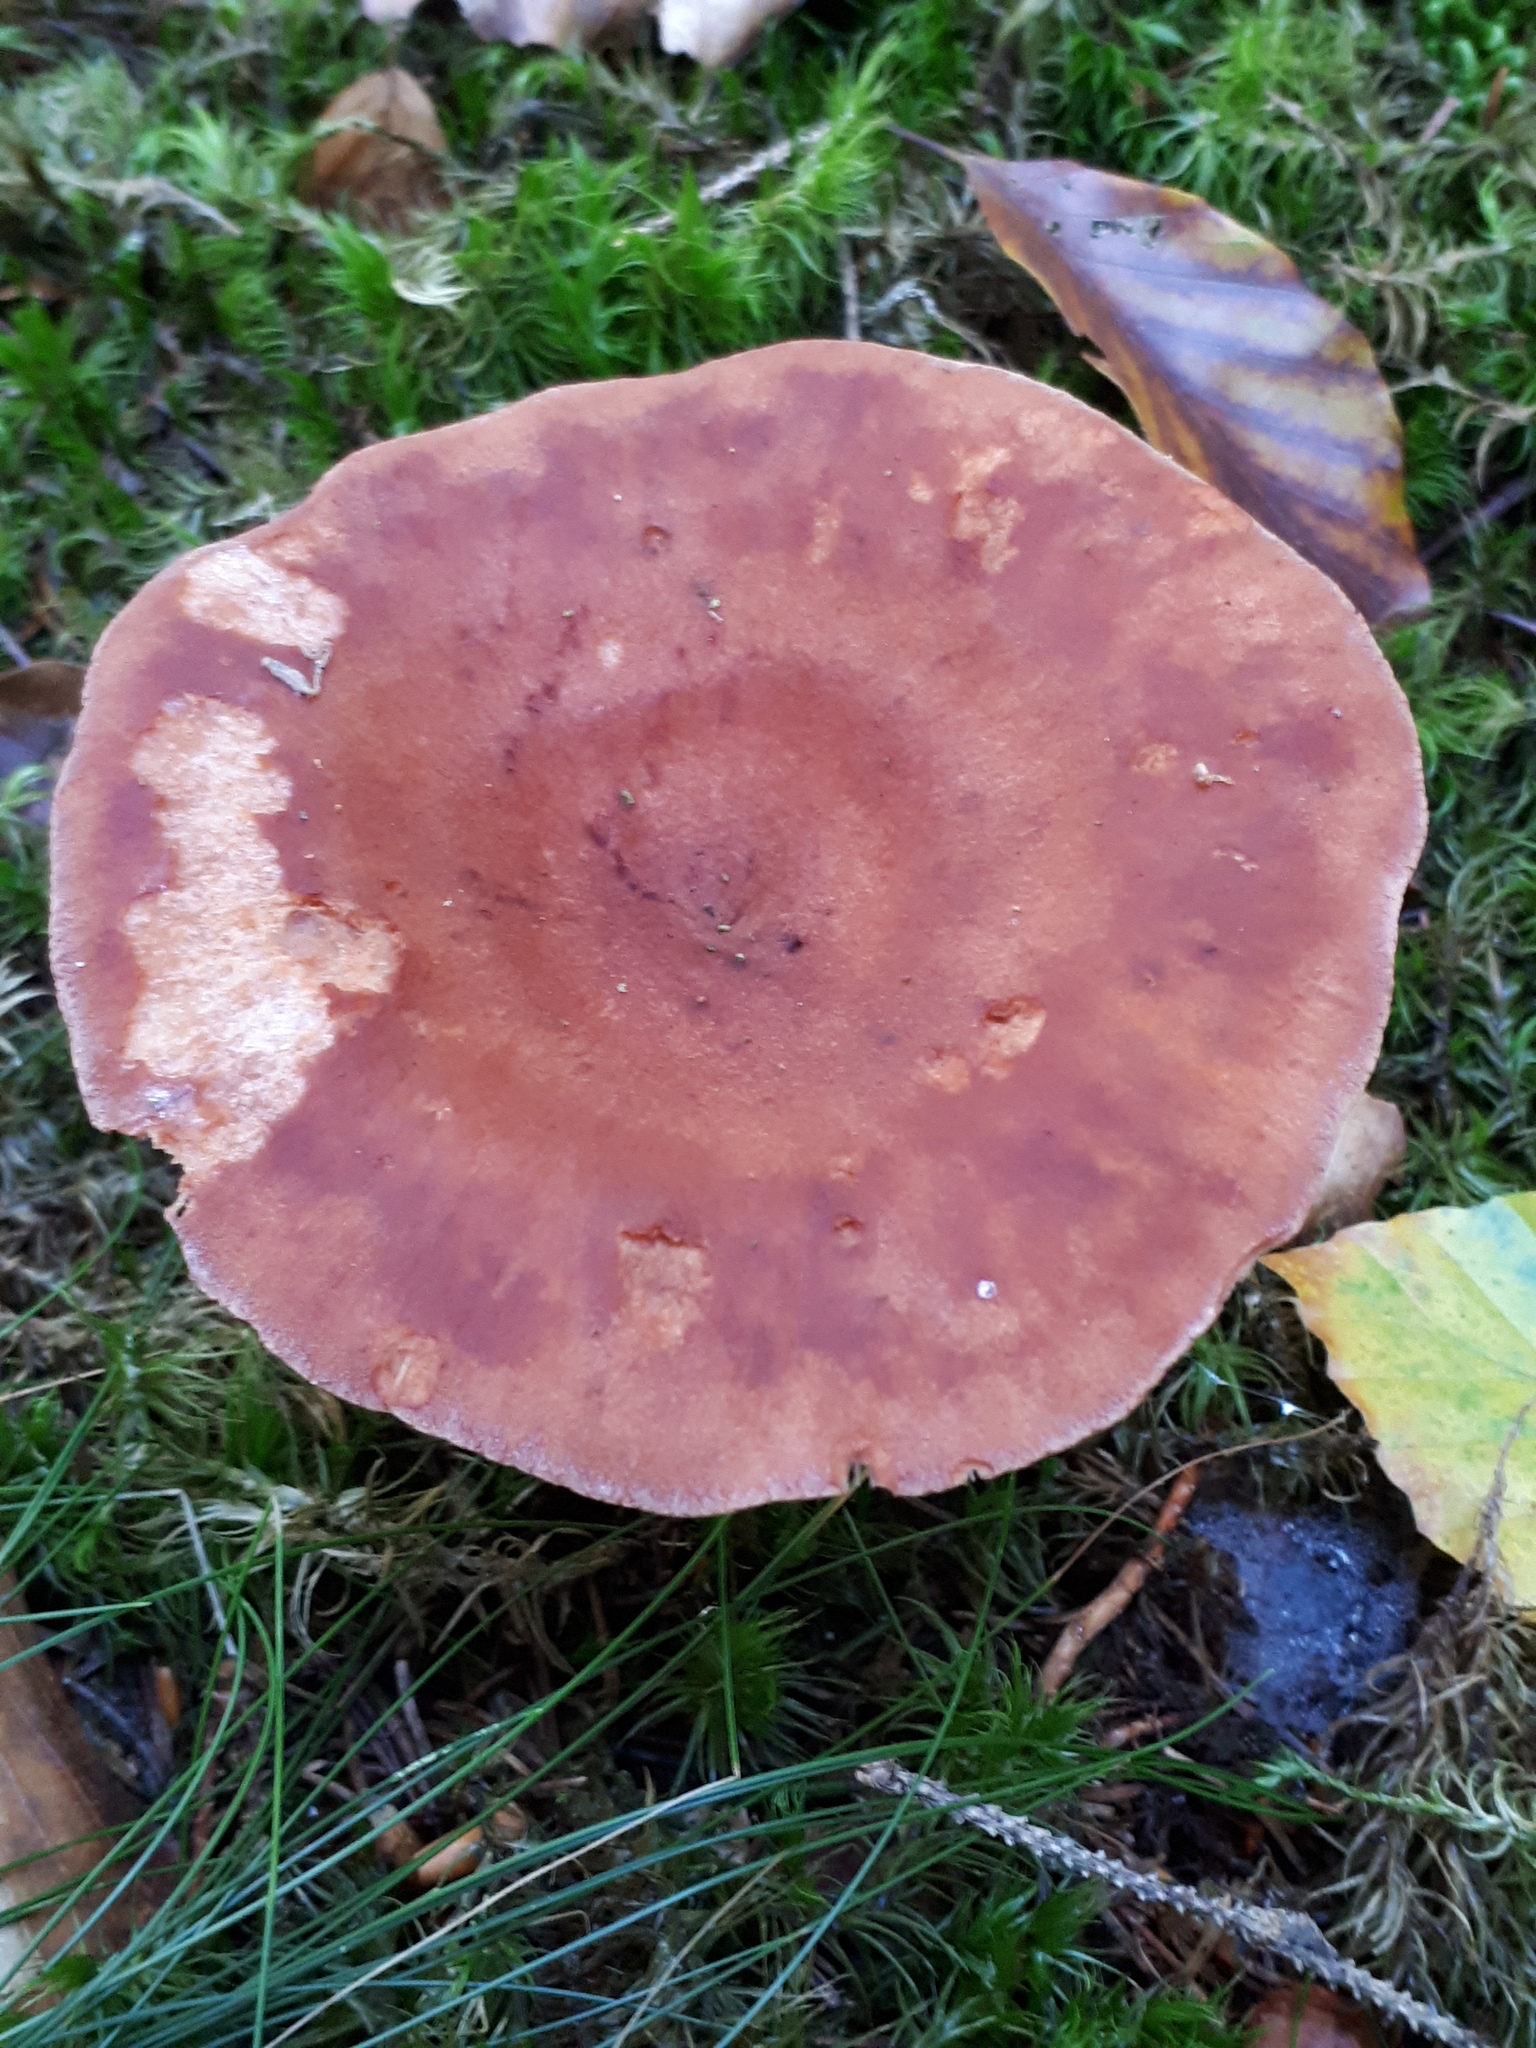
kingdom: Fungi
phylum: Basidiomycota
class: Agaricomycetes
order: Russulales
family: Russulaceae
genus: Lactarius
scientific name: Lactarius helvus
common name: Fenugreek milkcap
